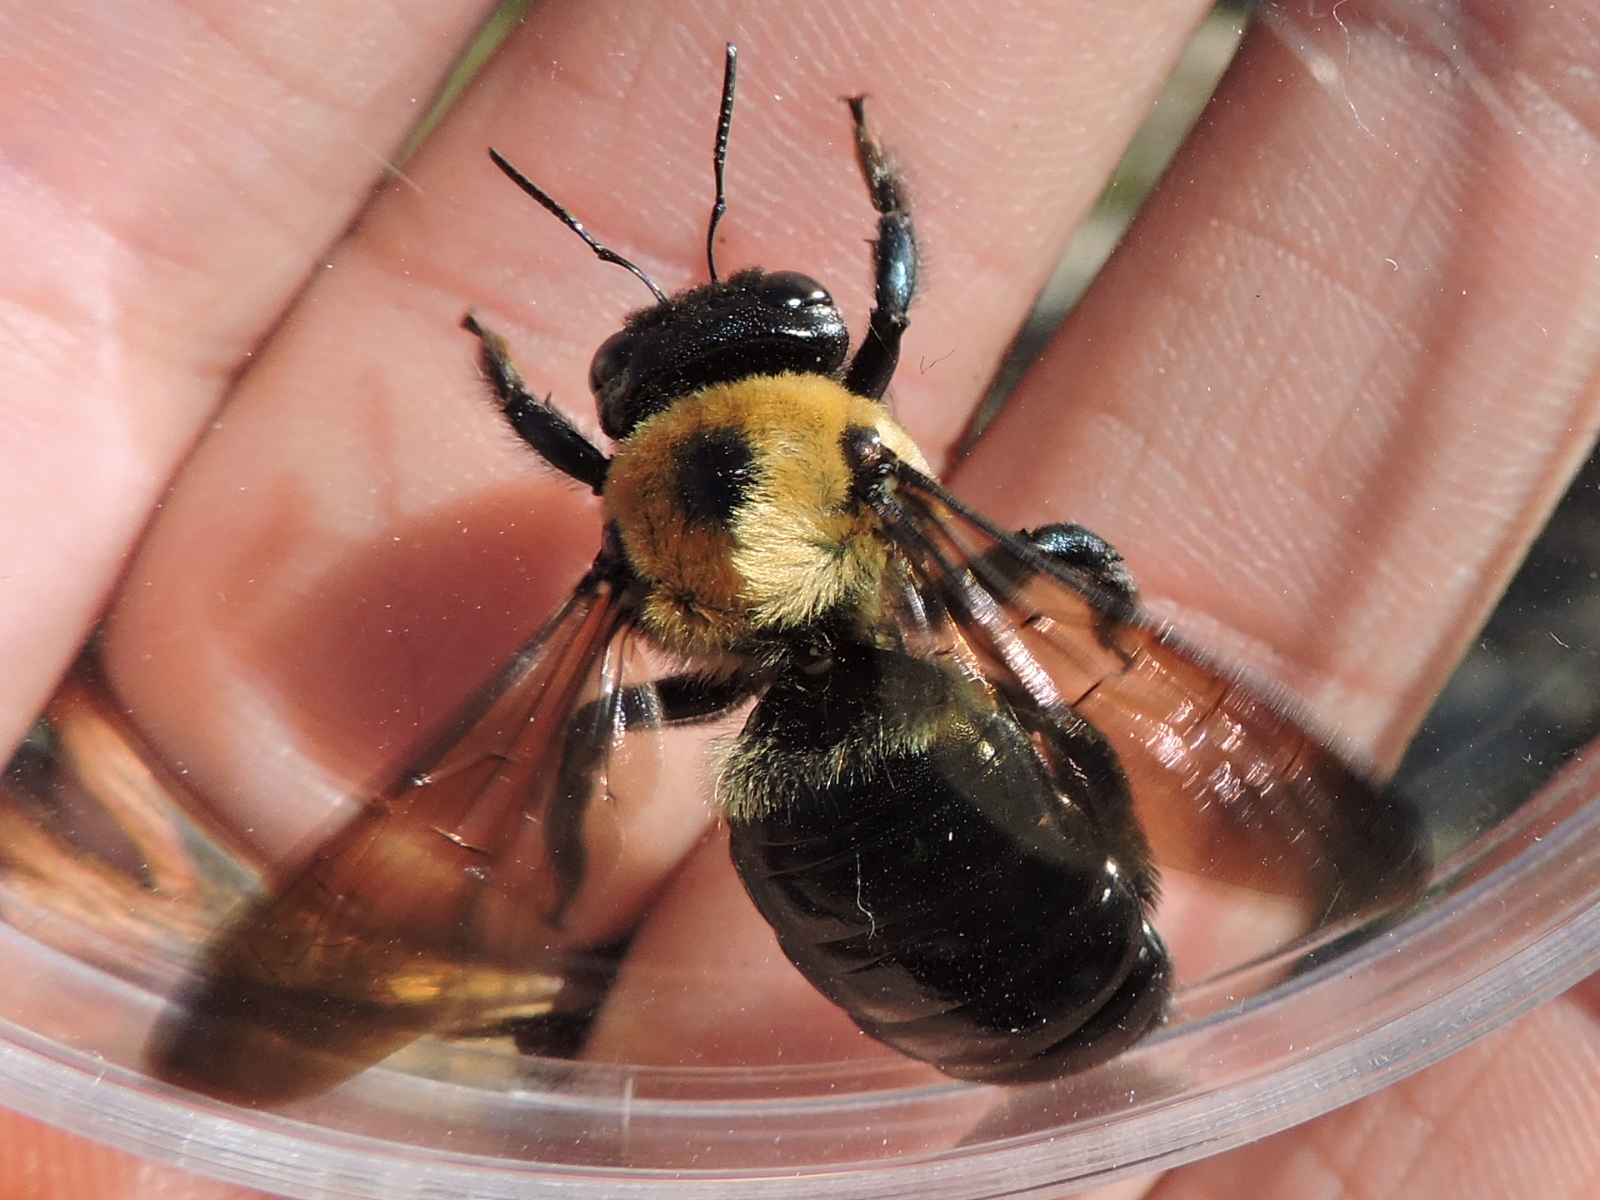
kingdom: Animalia
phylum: Arthropoda
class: Insecta
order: Hymenoptera
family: Apidae
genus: Xylocopa
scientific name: Xylocopa virginica
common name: Carpenter bee
